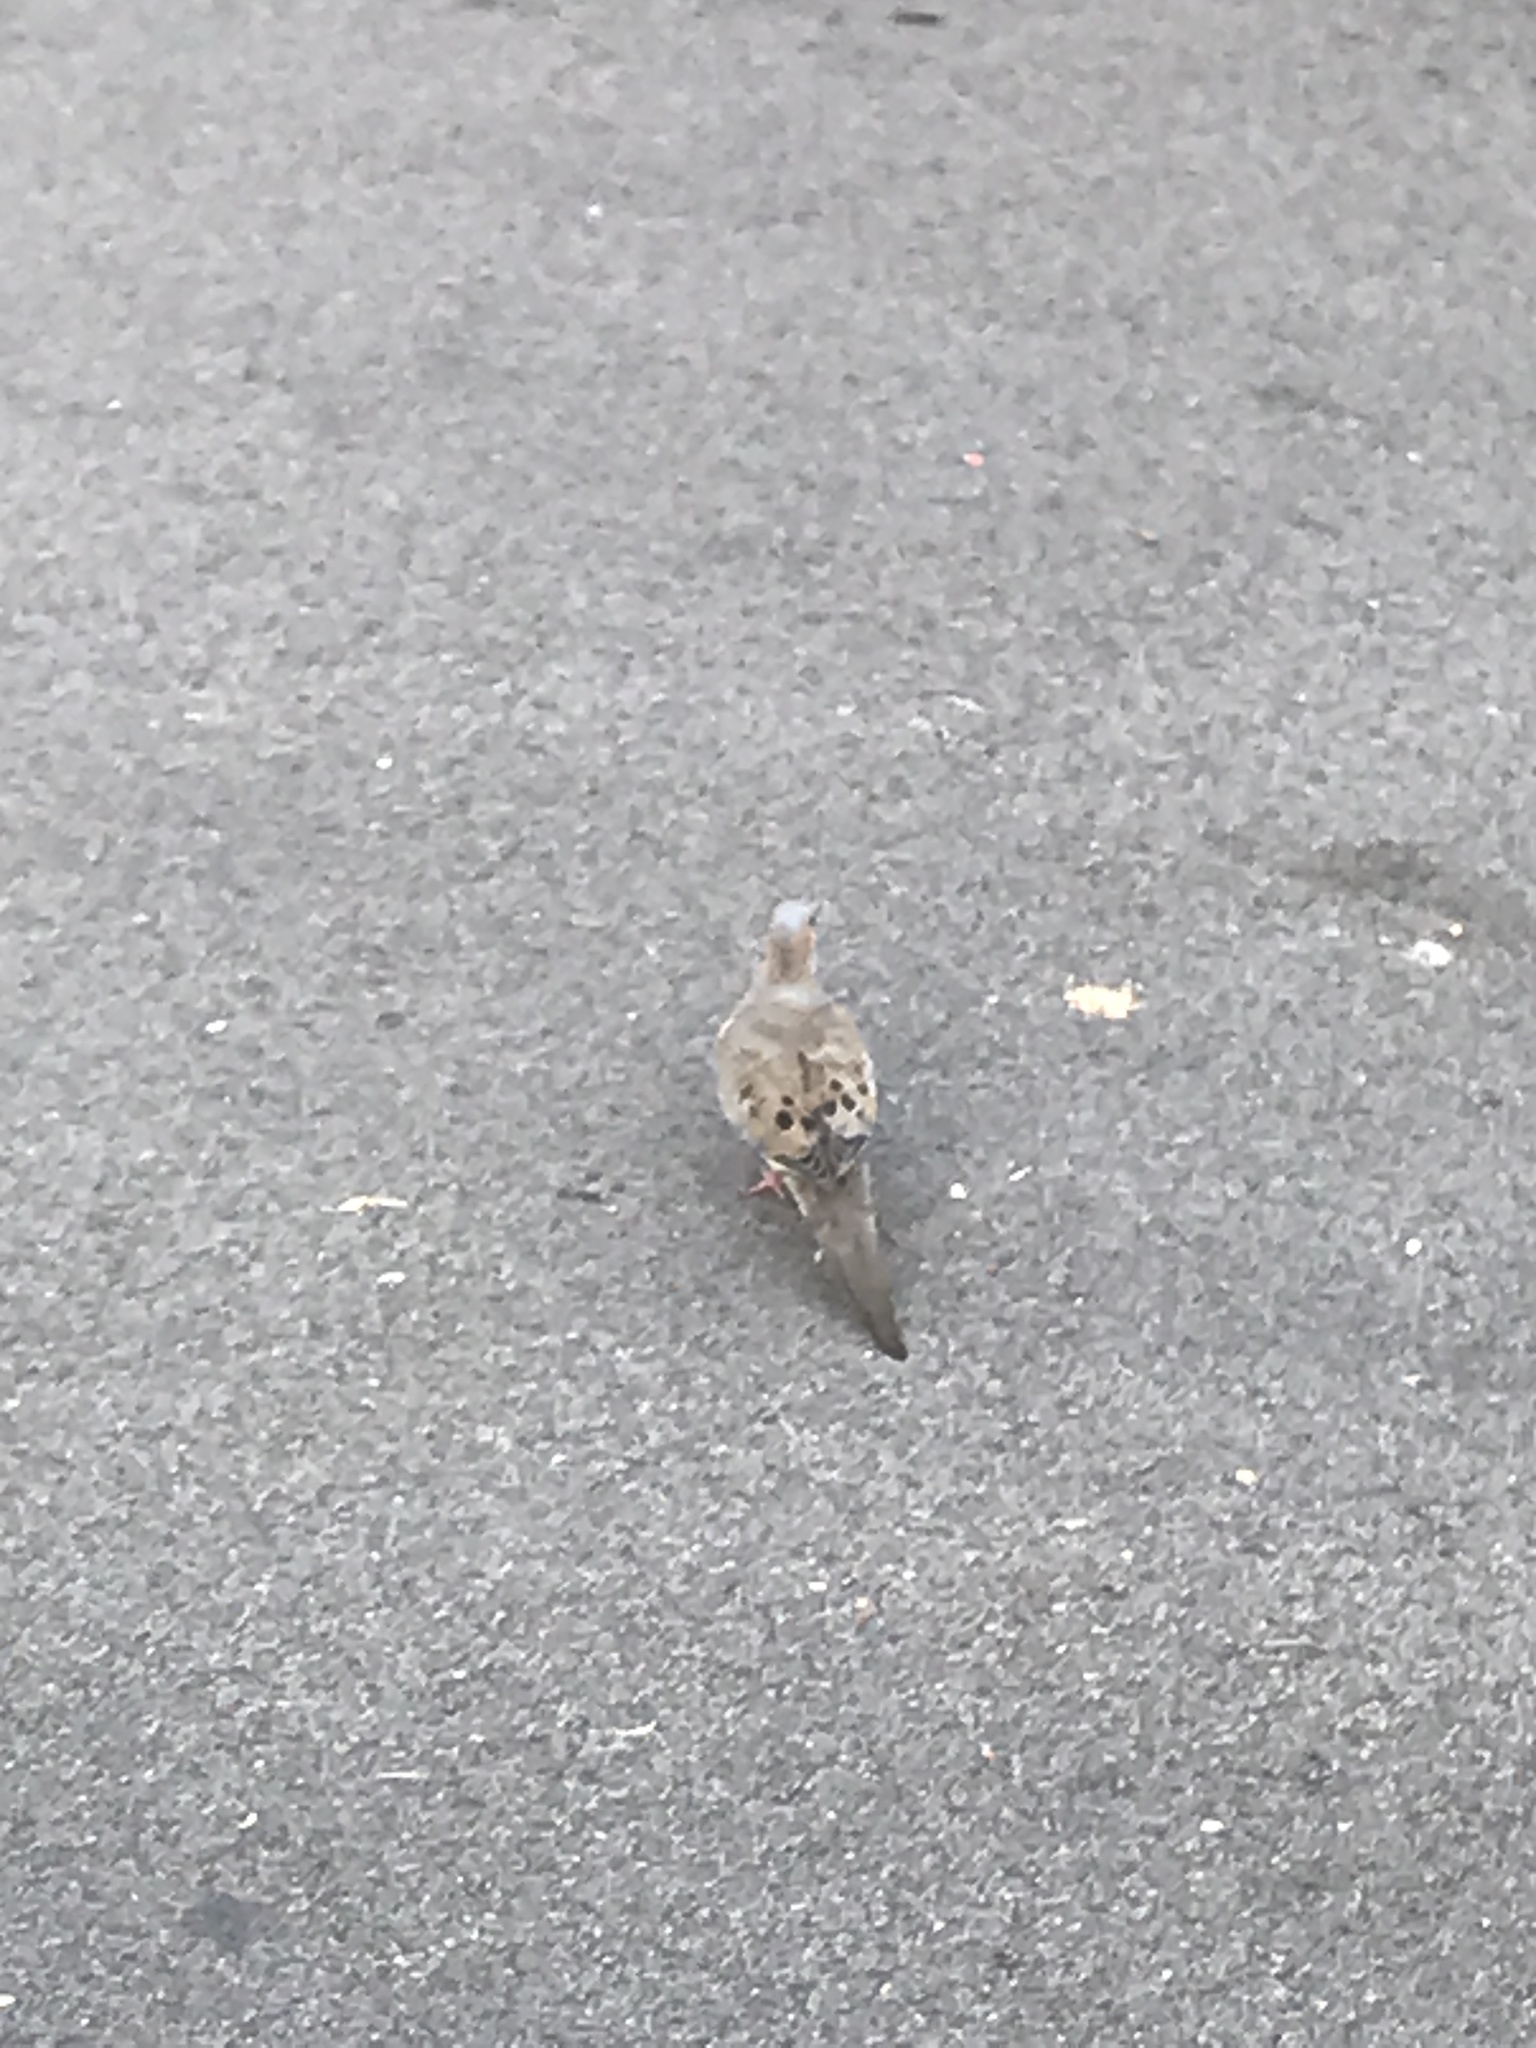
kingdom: Animalia
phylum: Chordata
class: Aves
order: Columbiformes
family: Columbidae
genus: Zenaida
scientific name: Zenaida macroura
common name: Mourning dove
